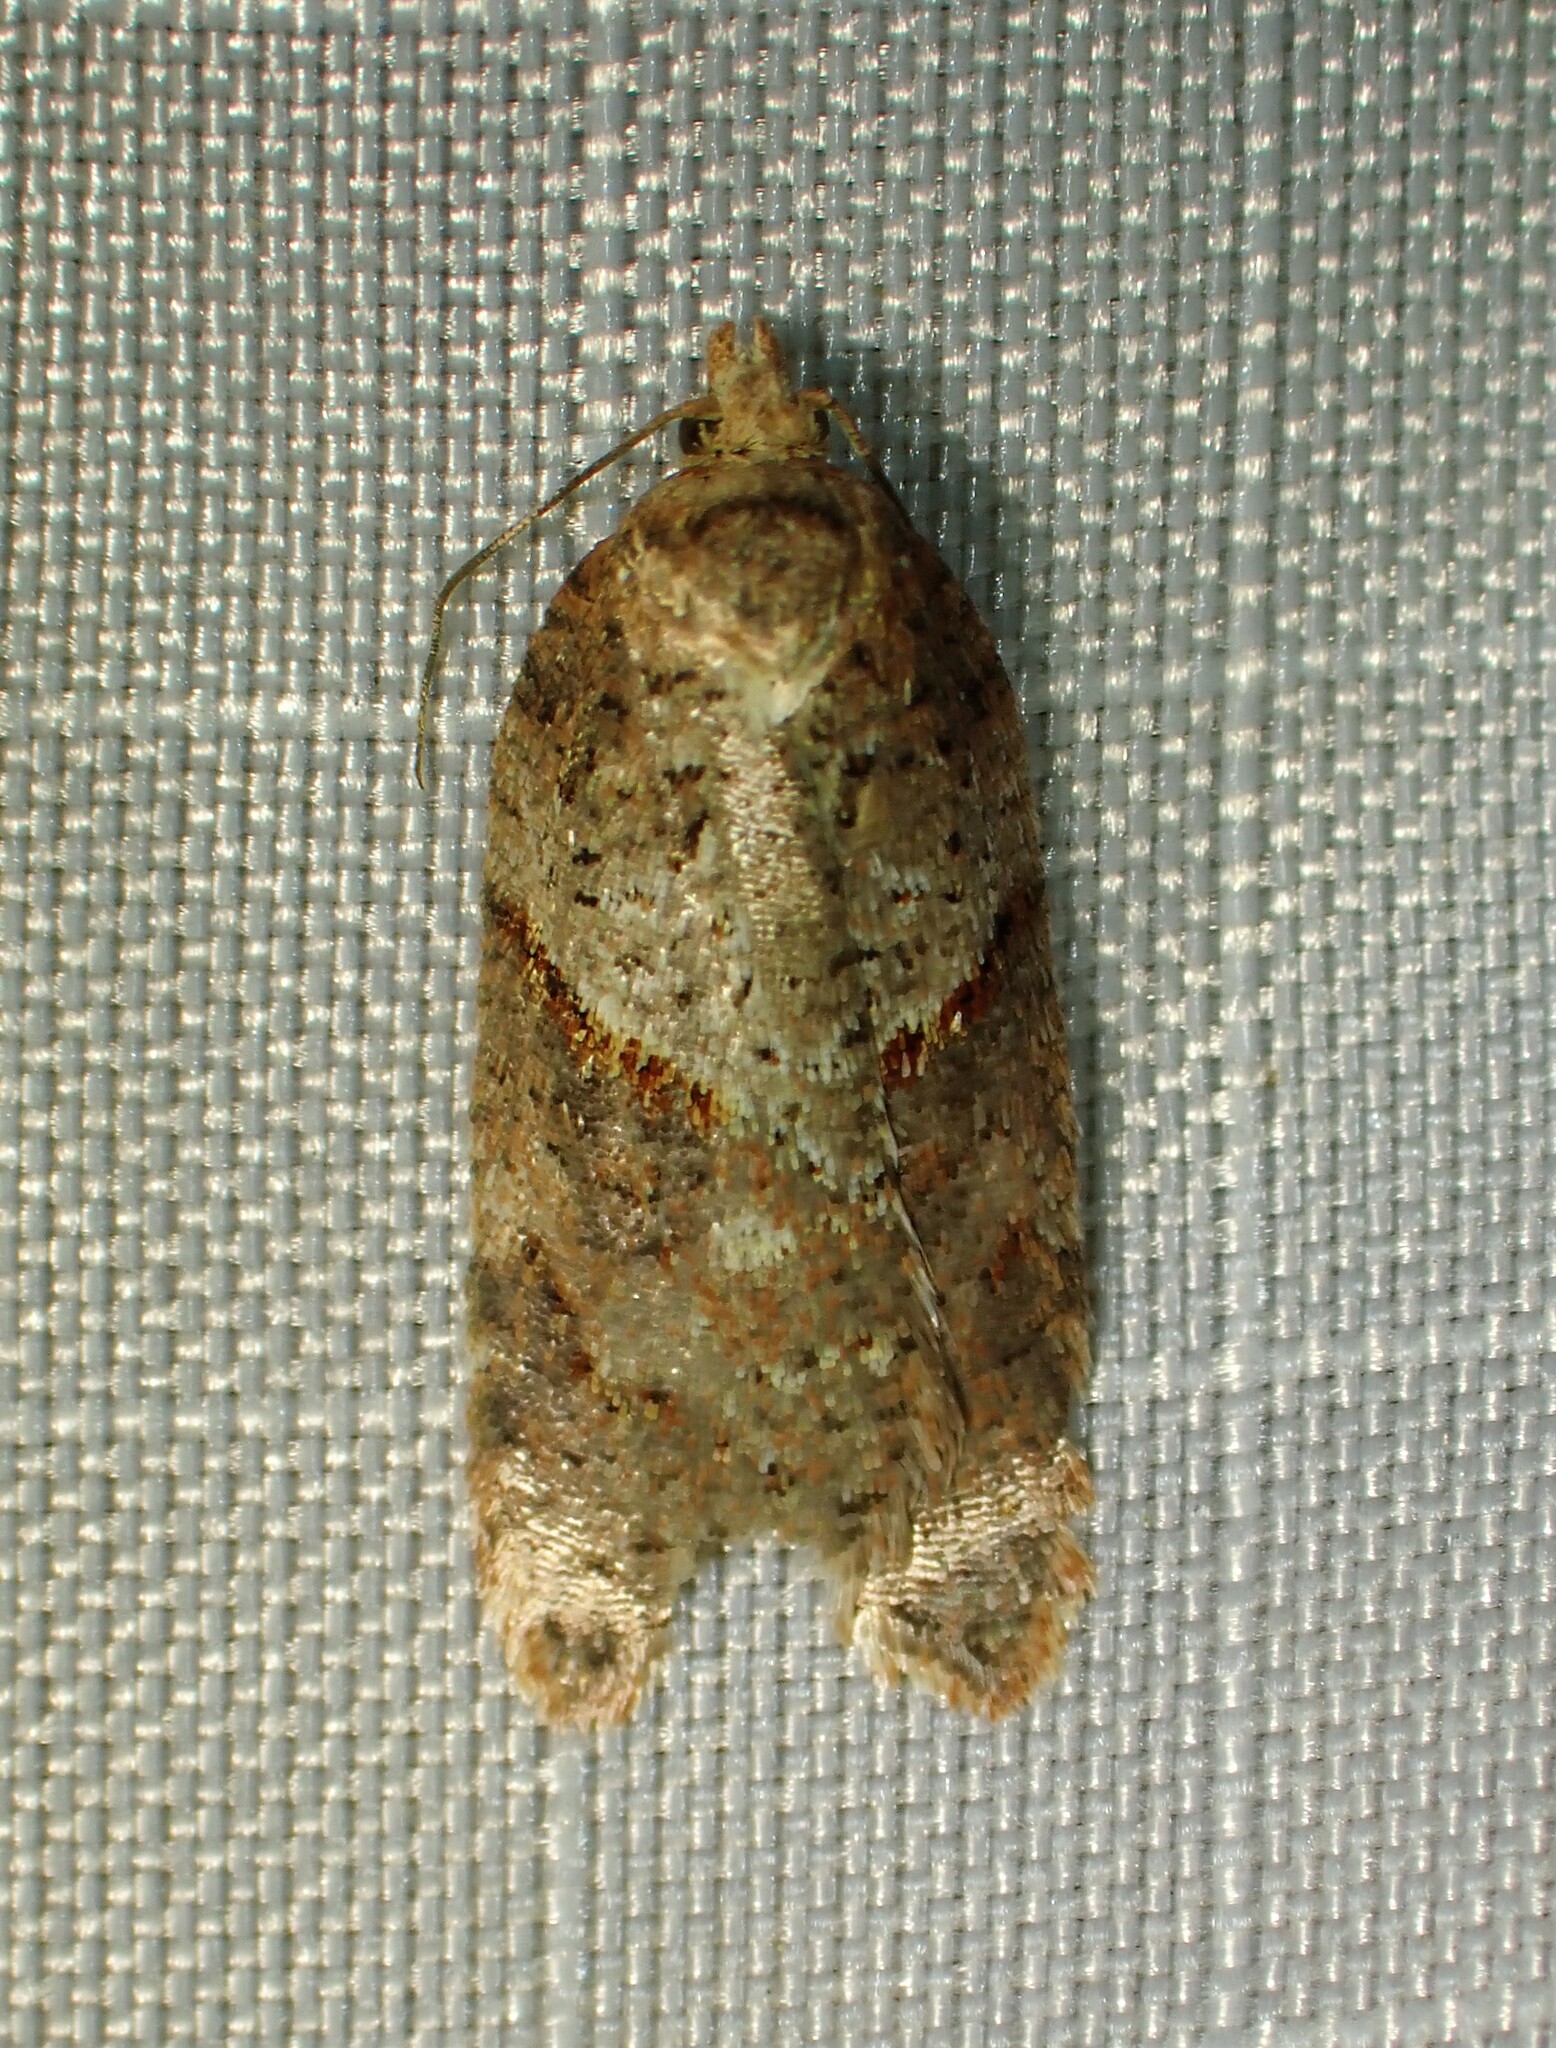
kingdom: Animalia
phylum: Arthropoda
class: Insecta
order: Lepidoptera
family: Tortricidae
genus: Acleris
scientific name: Acleris maccana
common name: Marbled button
